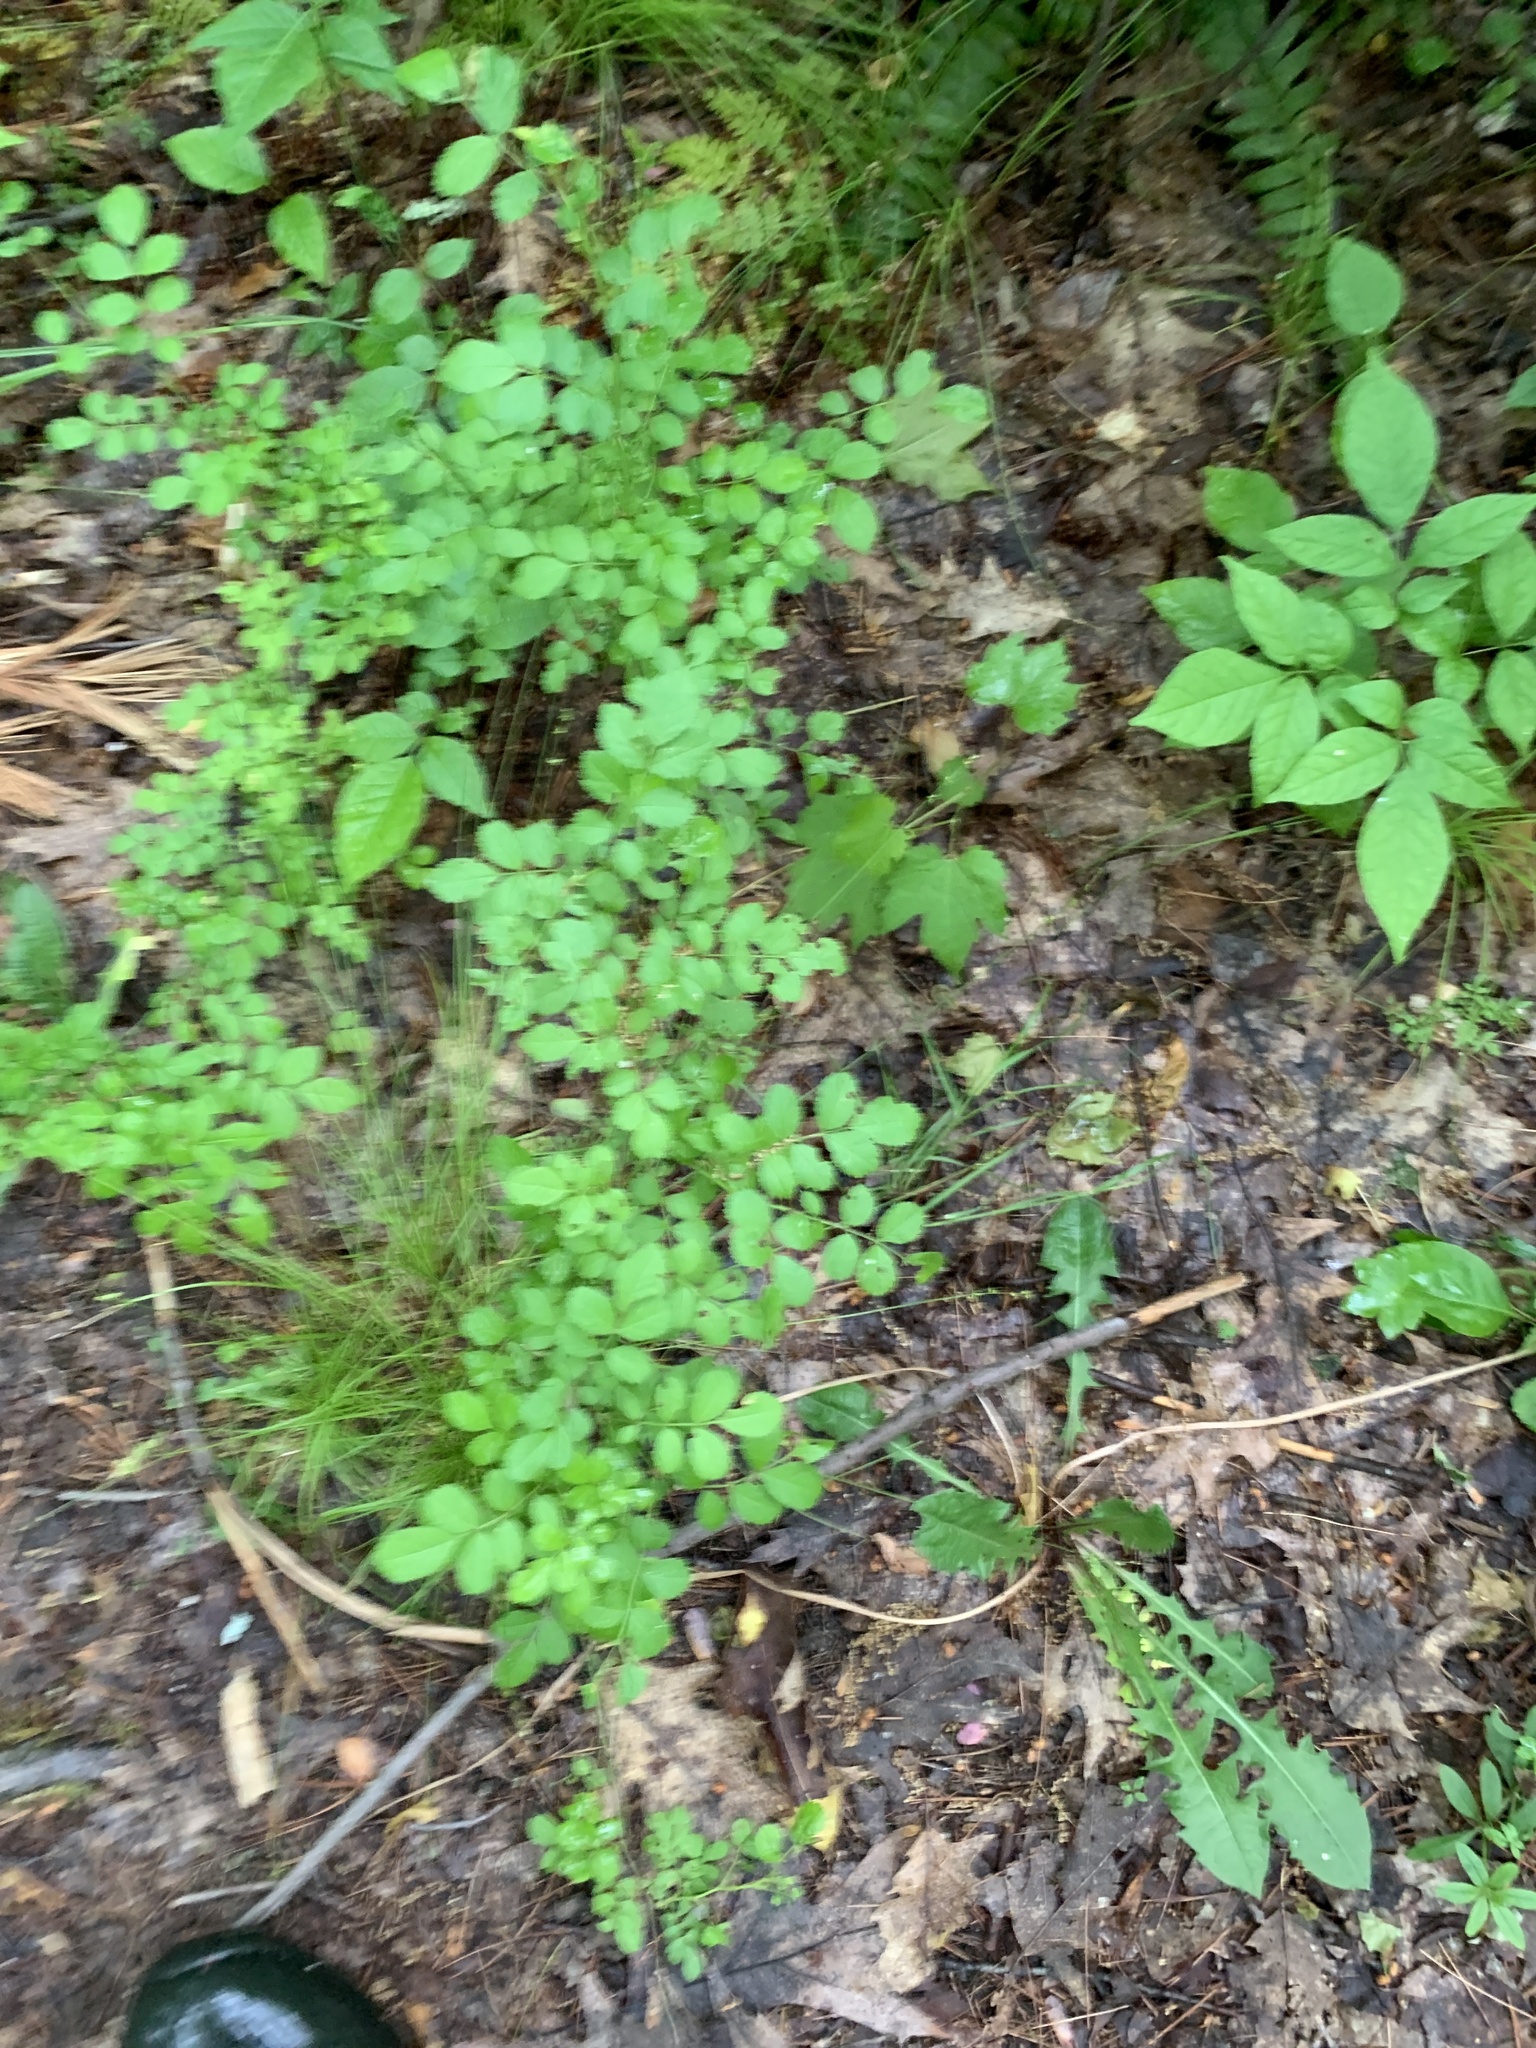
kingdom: Plantae
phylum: Tracheophyta
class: Magnoliopsida
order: Rosales
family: Rosaceae
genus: Rosa
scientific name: Rosa multiflora
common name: Multiflora rose
